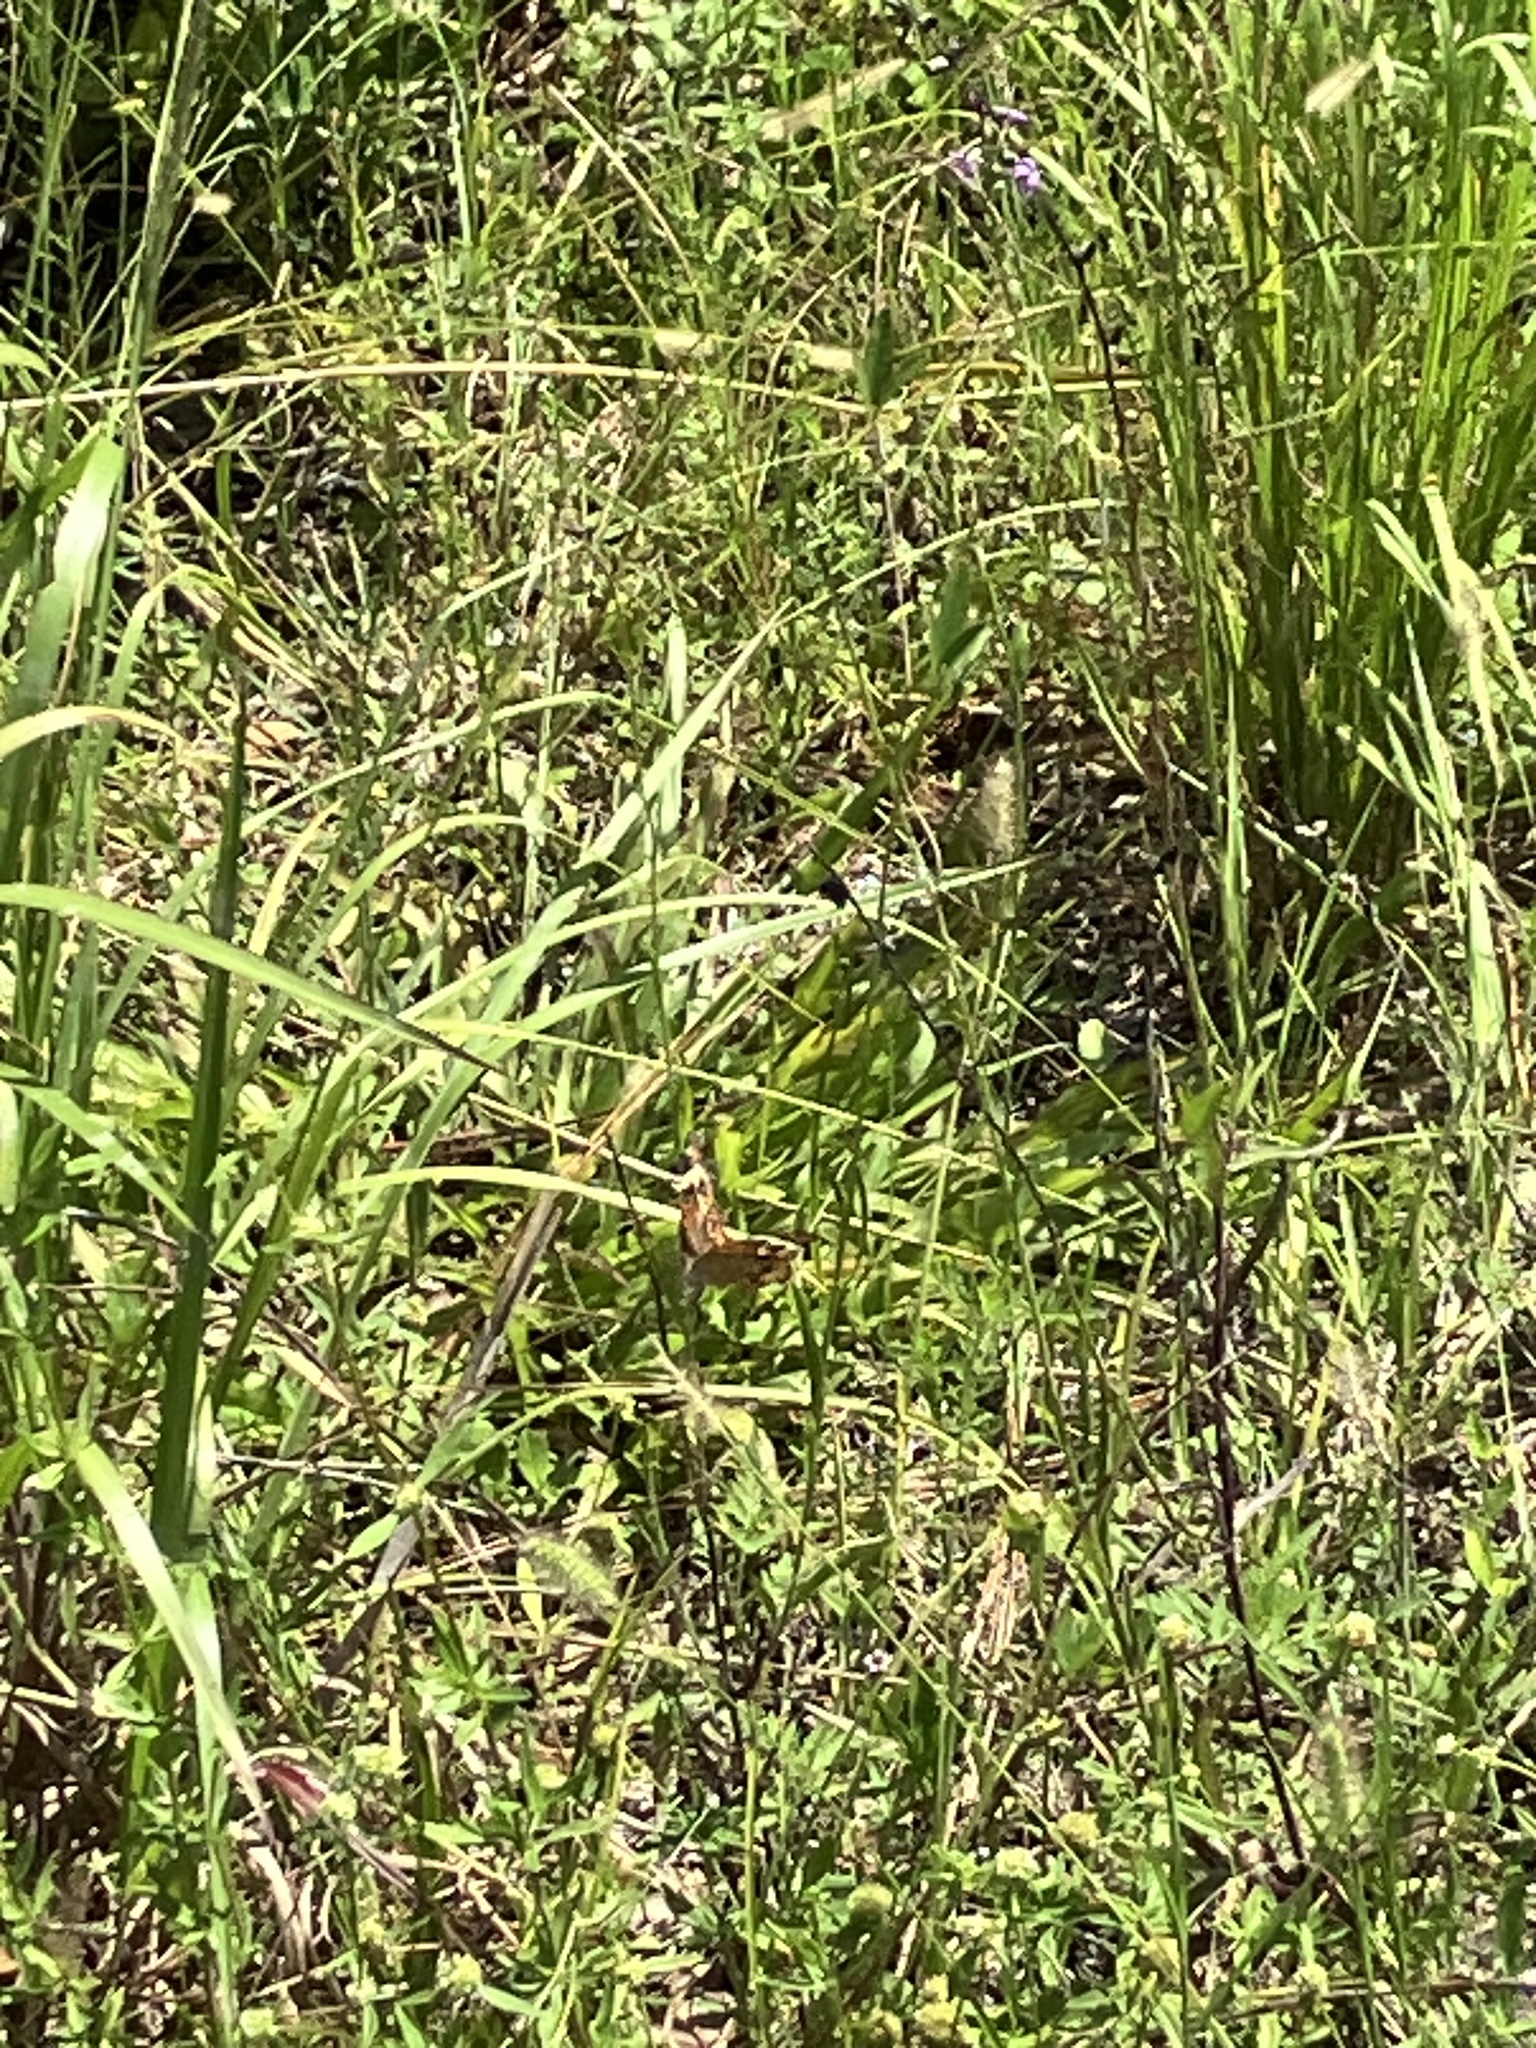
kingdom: Animalia
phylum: Arthropoda
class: Insecta
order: Lepidoptera
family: Nymphalidae
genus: Junonia
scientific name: Junonia coenia
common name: Common buckeye
